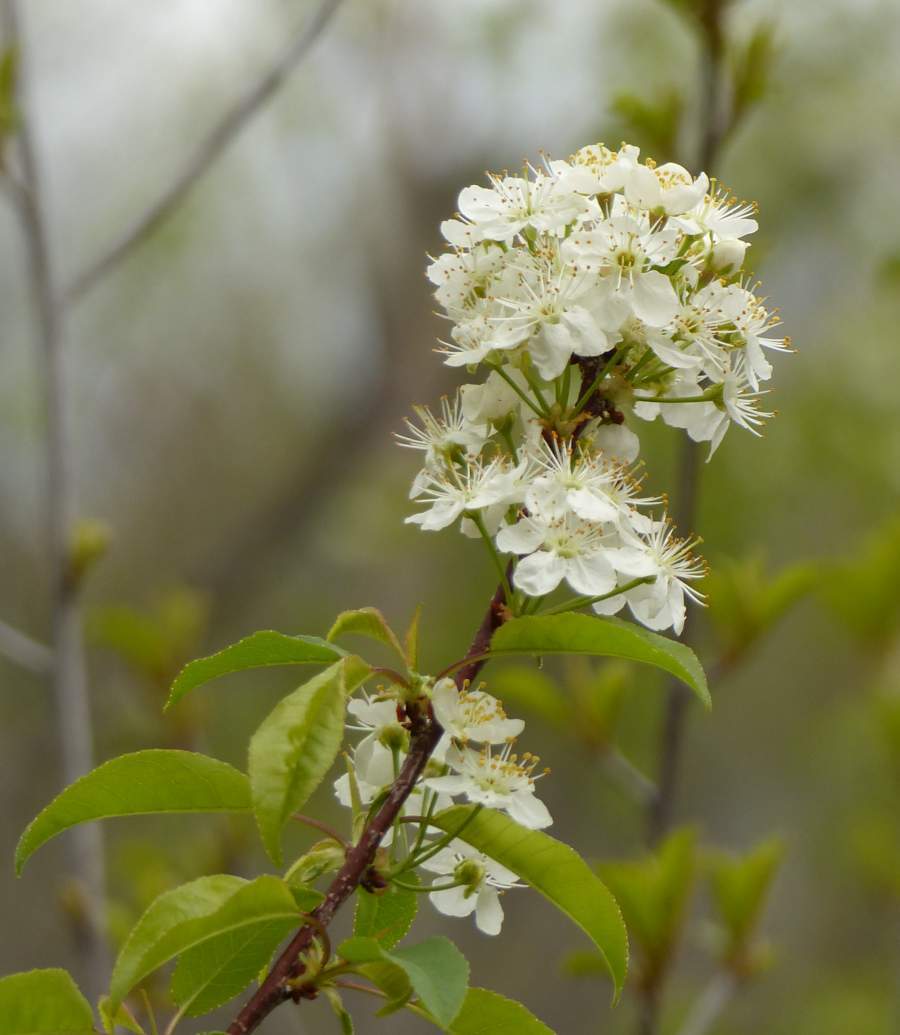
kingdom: Plantae
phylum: Tracheophyta
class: Magnoliopsida
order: Rosales
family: Rosaceae
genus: Prunus
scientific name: Prunus pensylvanica
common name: Pin cherry
